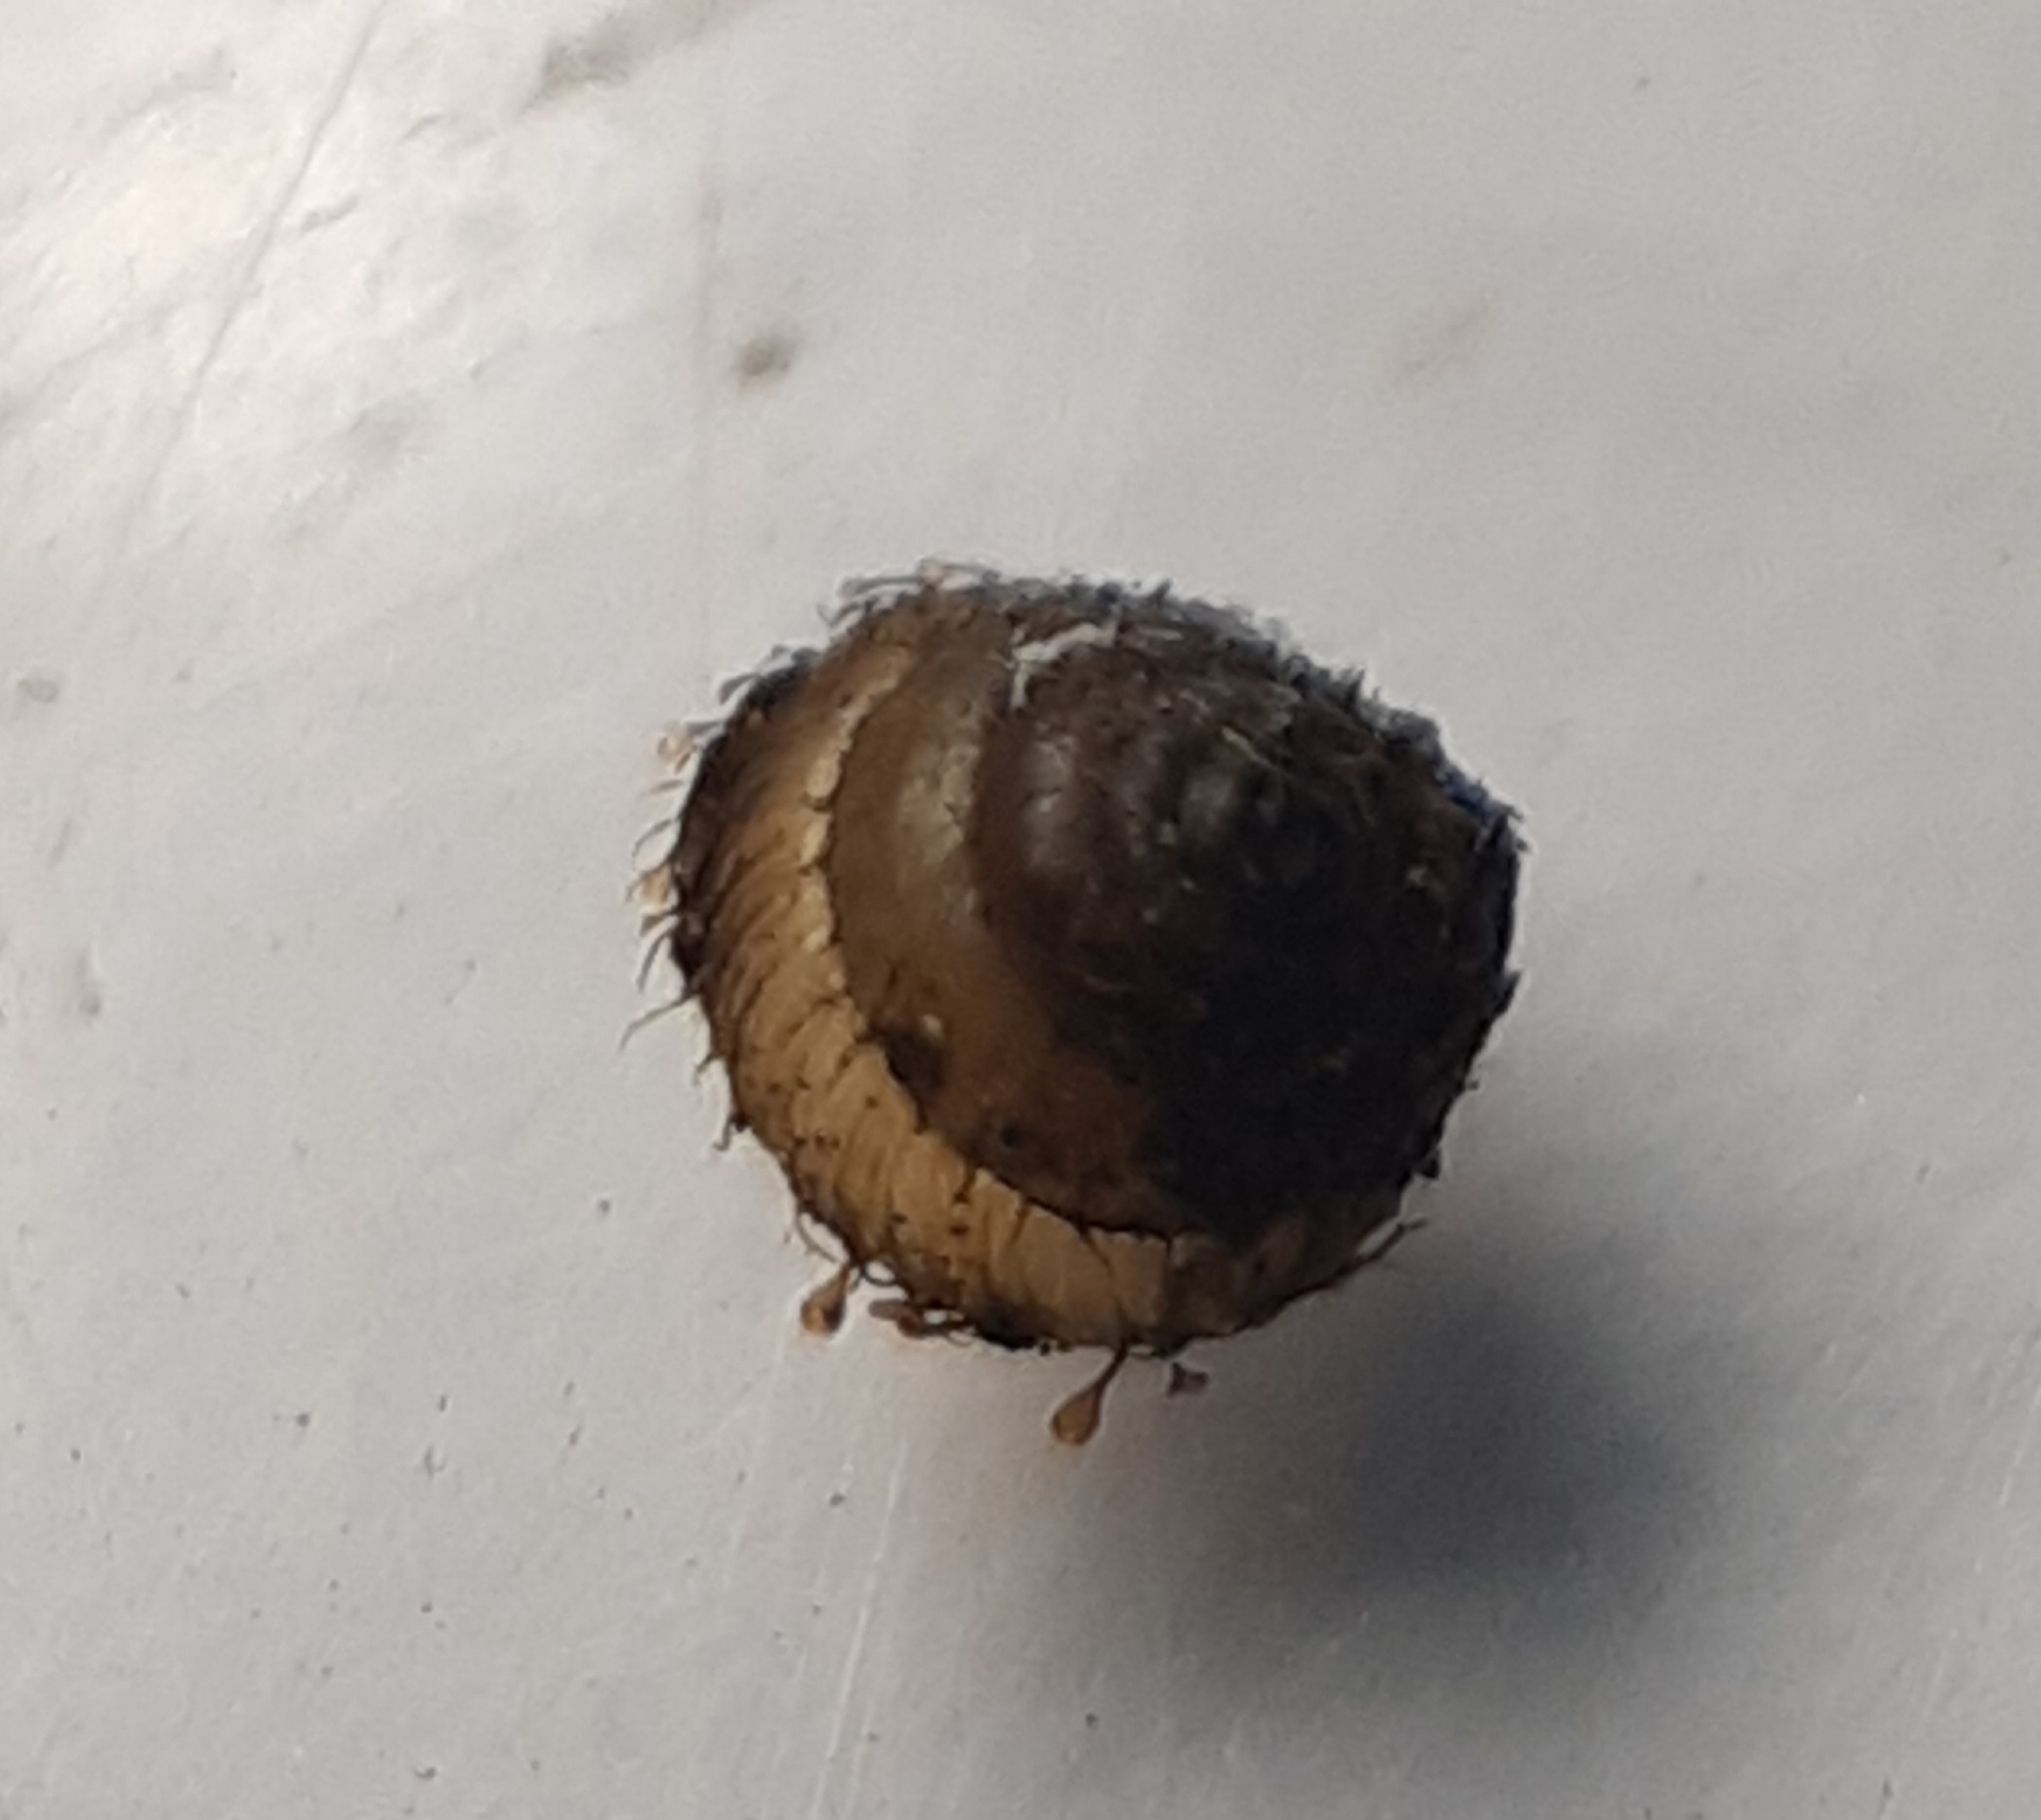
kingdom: Animalia
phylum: Mollusca
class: Gastropoda
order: Stylommatophora
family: Punctidae
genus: Kokopapa
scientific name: Kokopapa unispathulata
